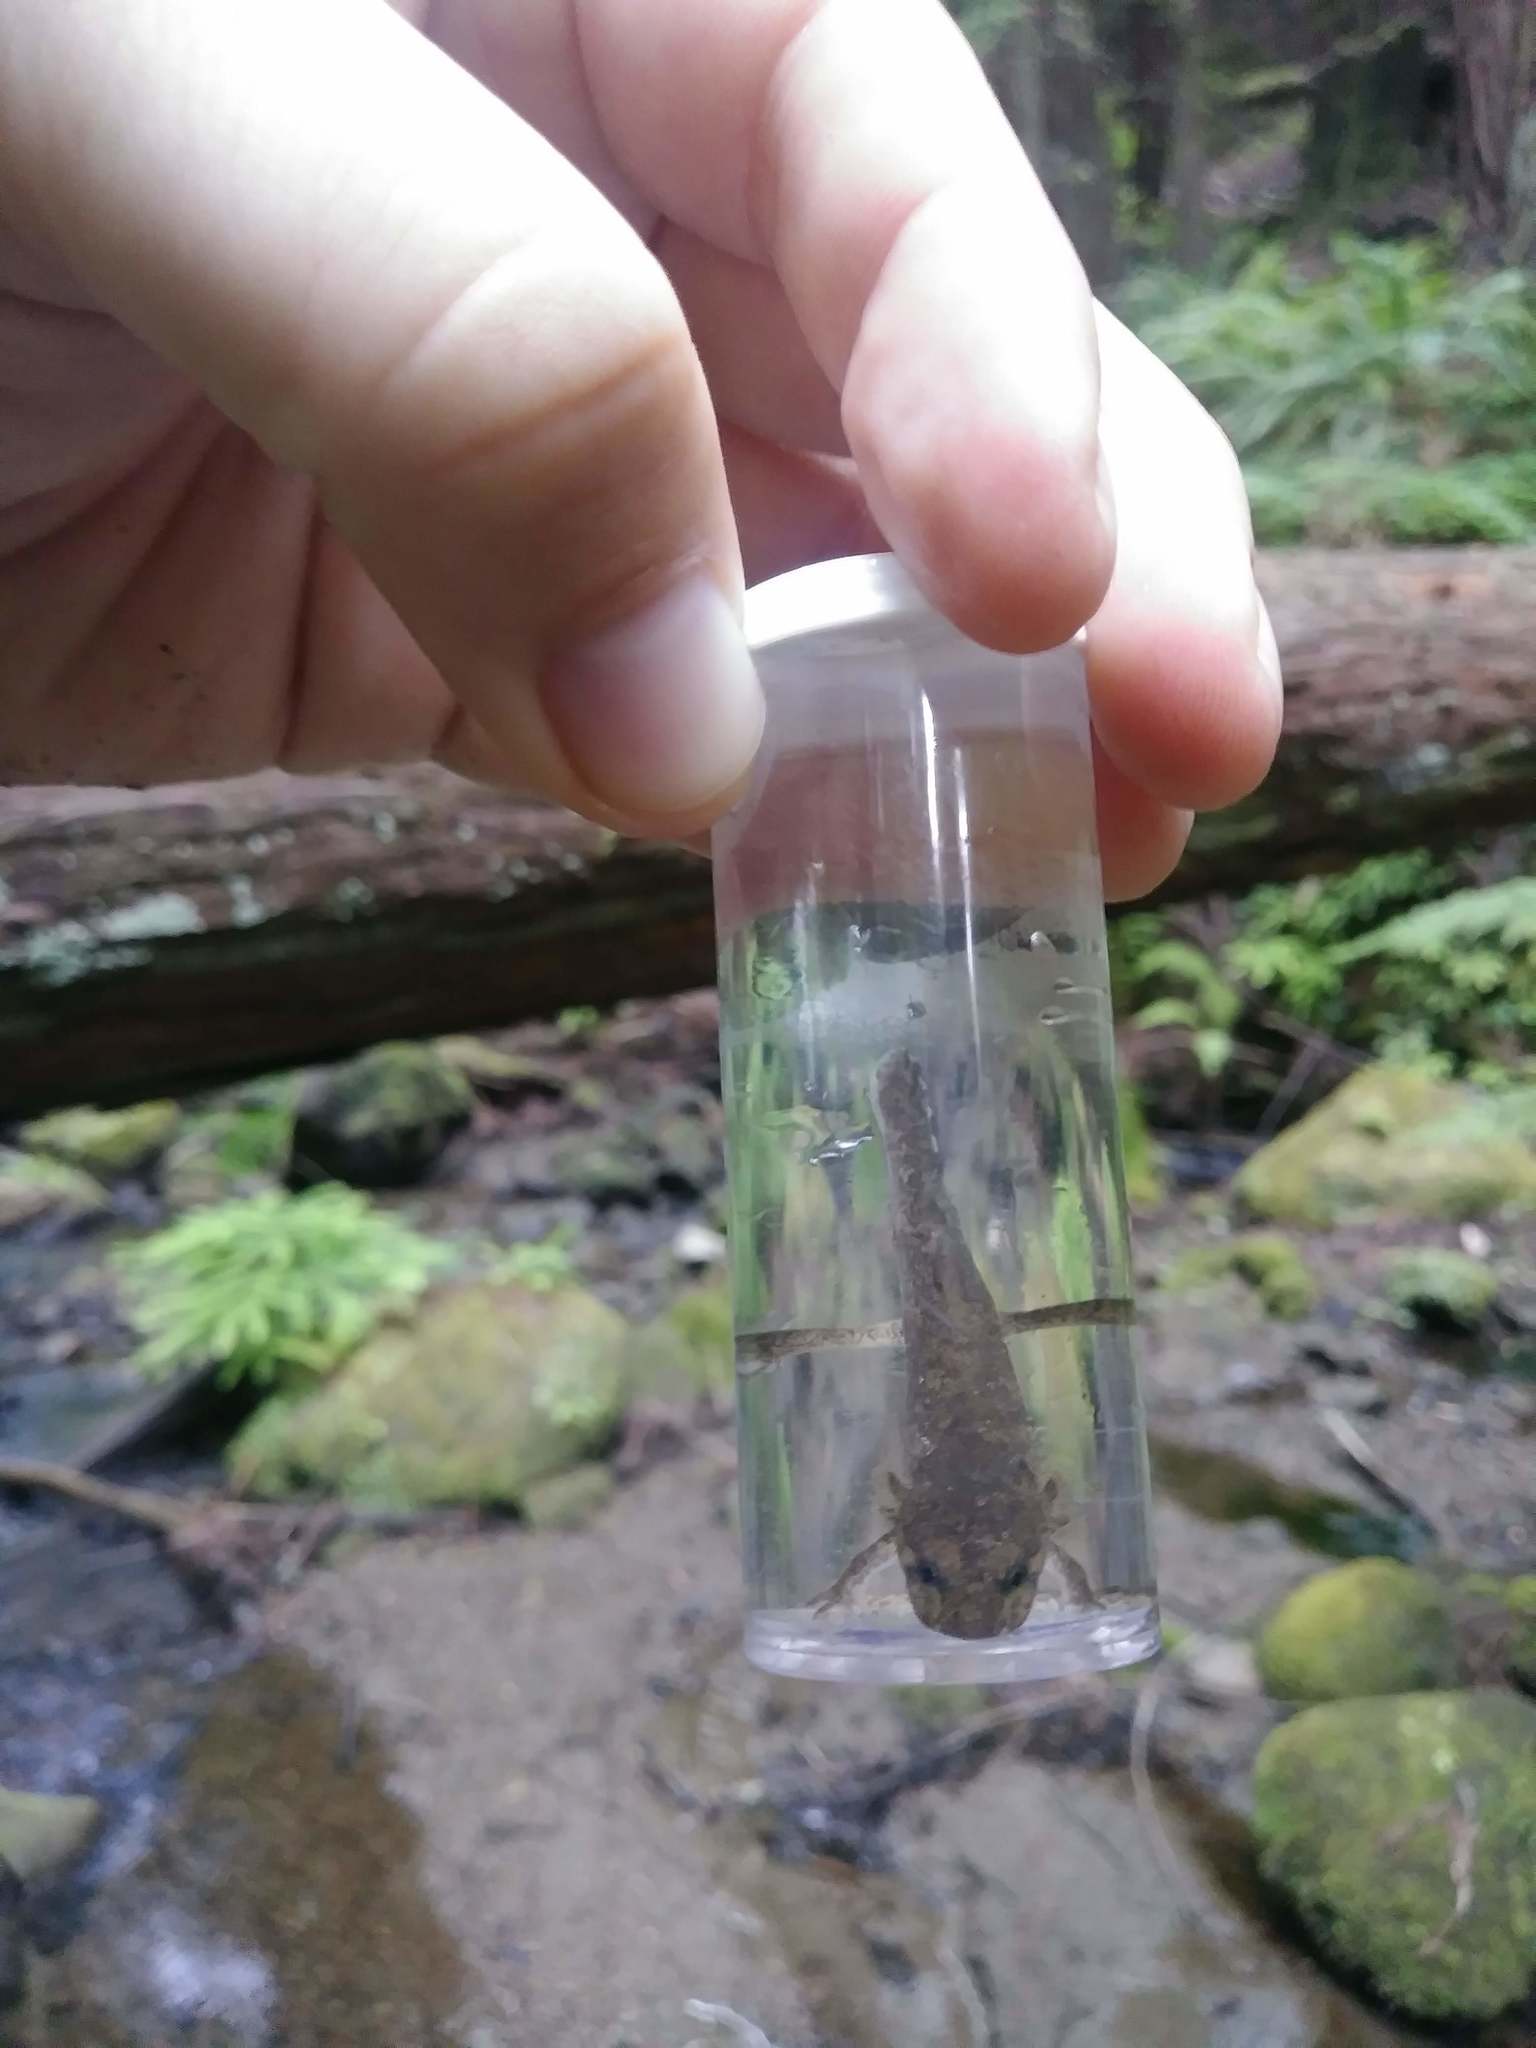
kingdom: Animalia
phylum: Chordata
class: Amphibia
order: Caudata
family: Ambystomatidae
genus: Dicamptodon
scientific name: Dicamptodon ensatus
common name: California giant salamander
